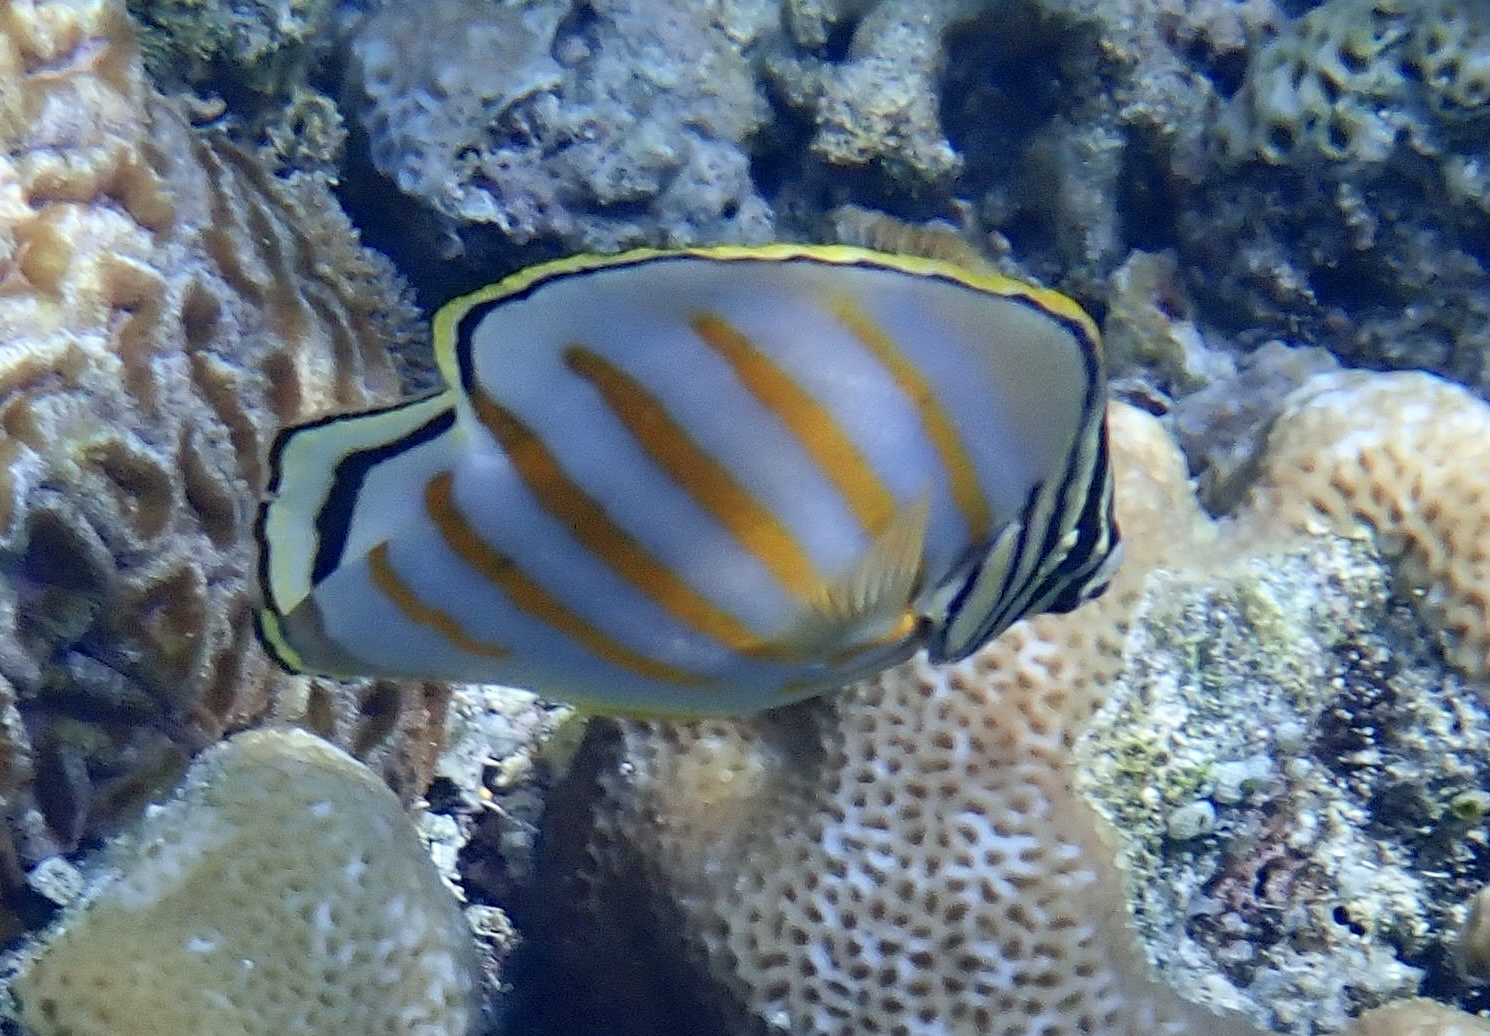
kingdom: Animalia
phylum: Chordata
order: Perciformes
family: Chaetodontidae
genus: Chaetodon
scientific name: Chaetodon ornatissimus
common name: Ornate butterflyfish
